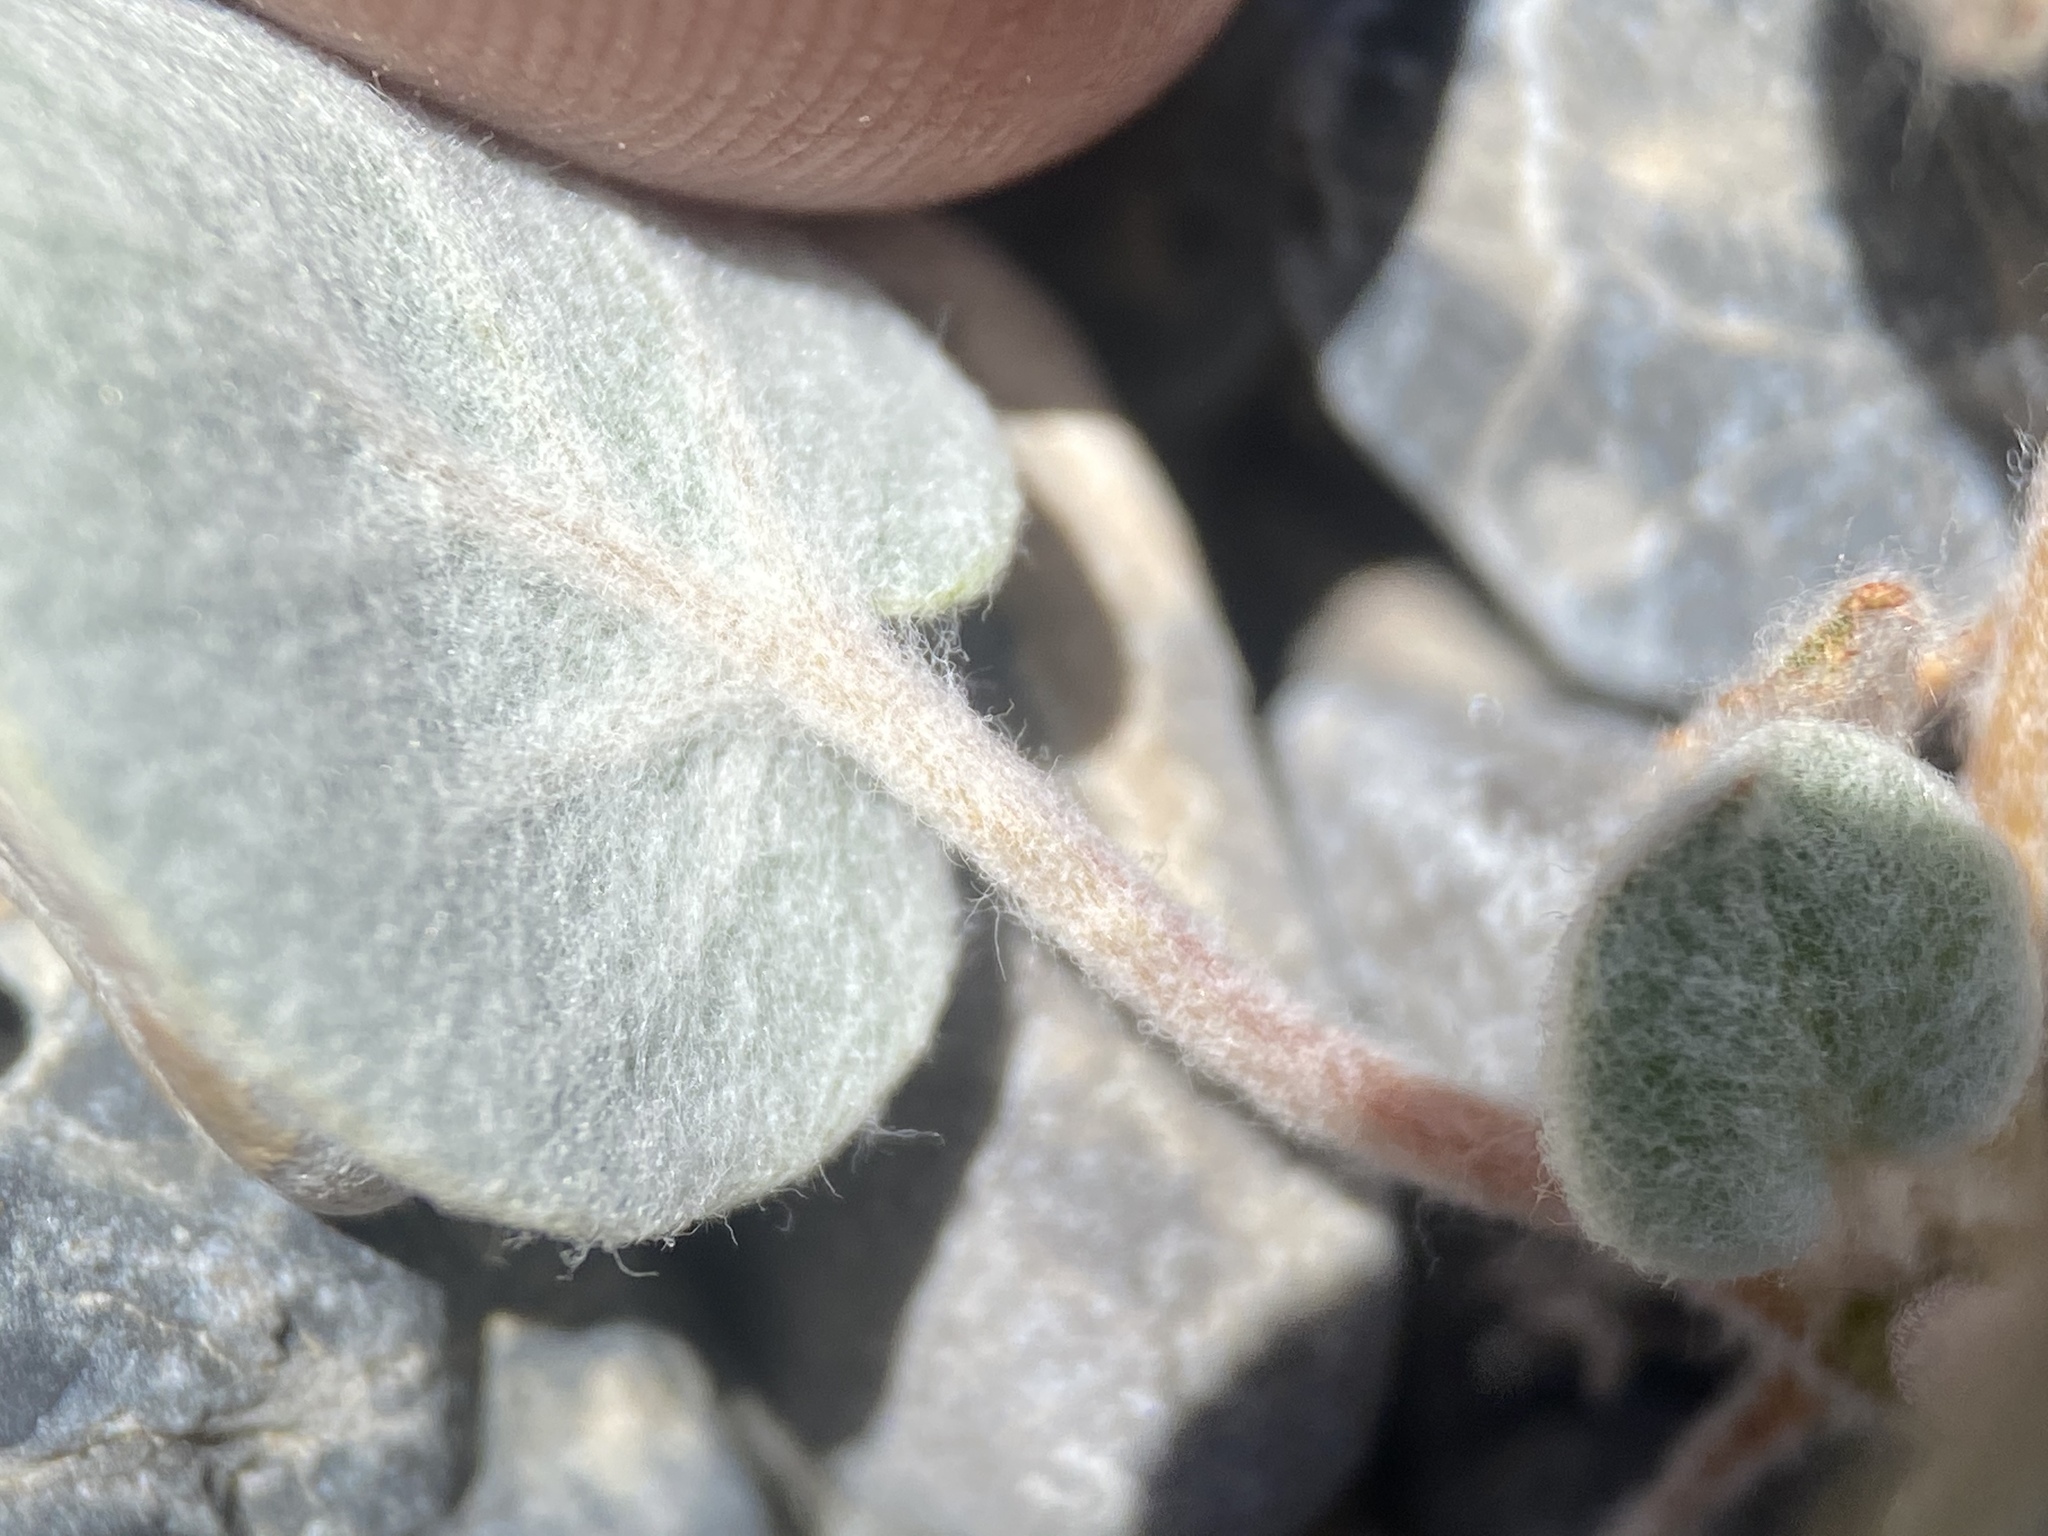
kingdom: Plantae
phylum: Tracheophyta
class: Magnoliopsida
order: Caryophyllales
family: Polygonaceae
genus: Eriogonum
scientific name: Eriogonum brachypodum
